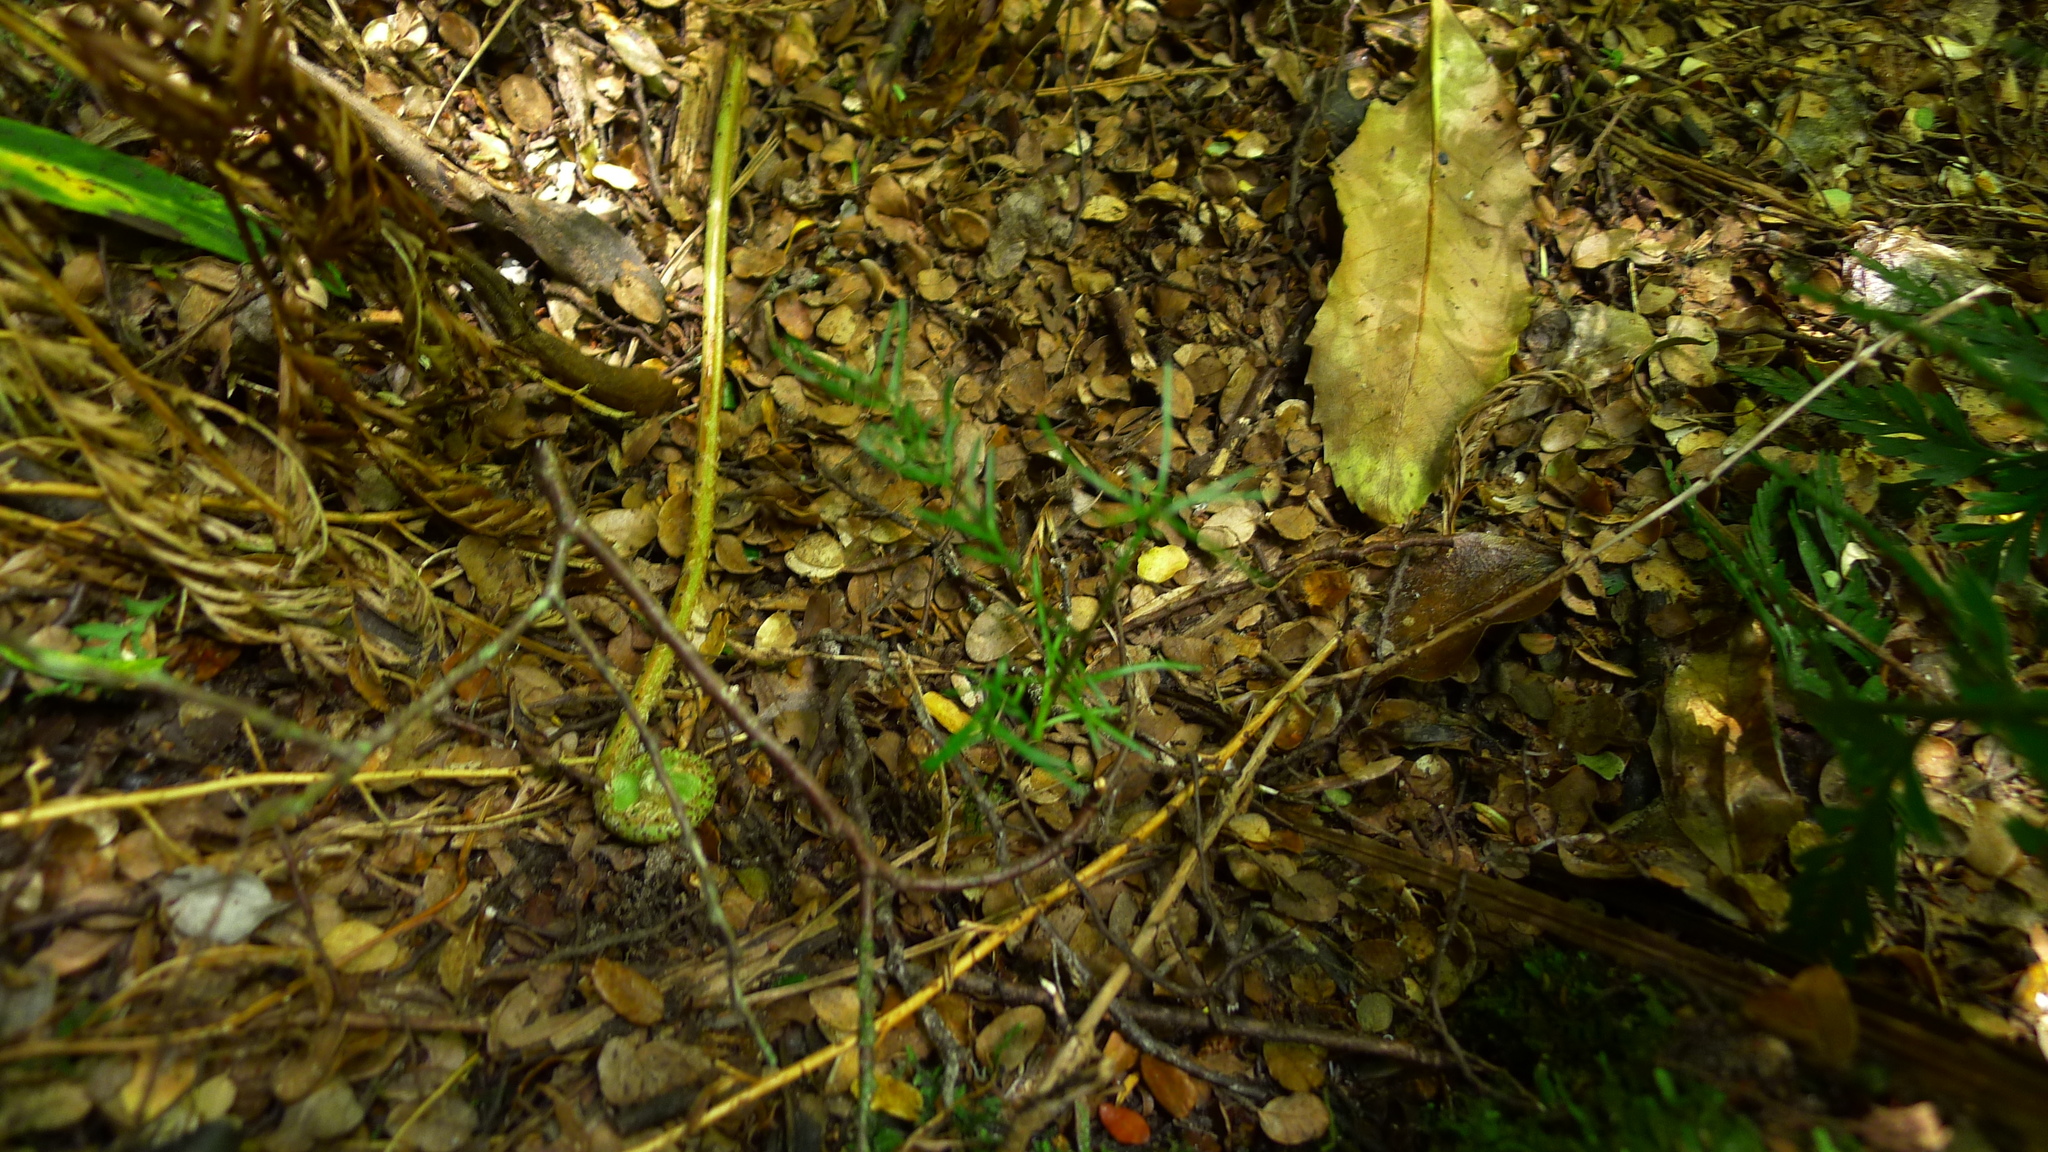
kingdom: Plantae
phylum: Tracheophyta
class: Pinopsida
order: Pinales
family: Podocarpaceae
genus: Prumnopitys
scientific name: Prumnopitys taxifolia
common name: Matai
